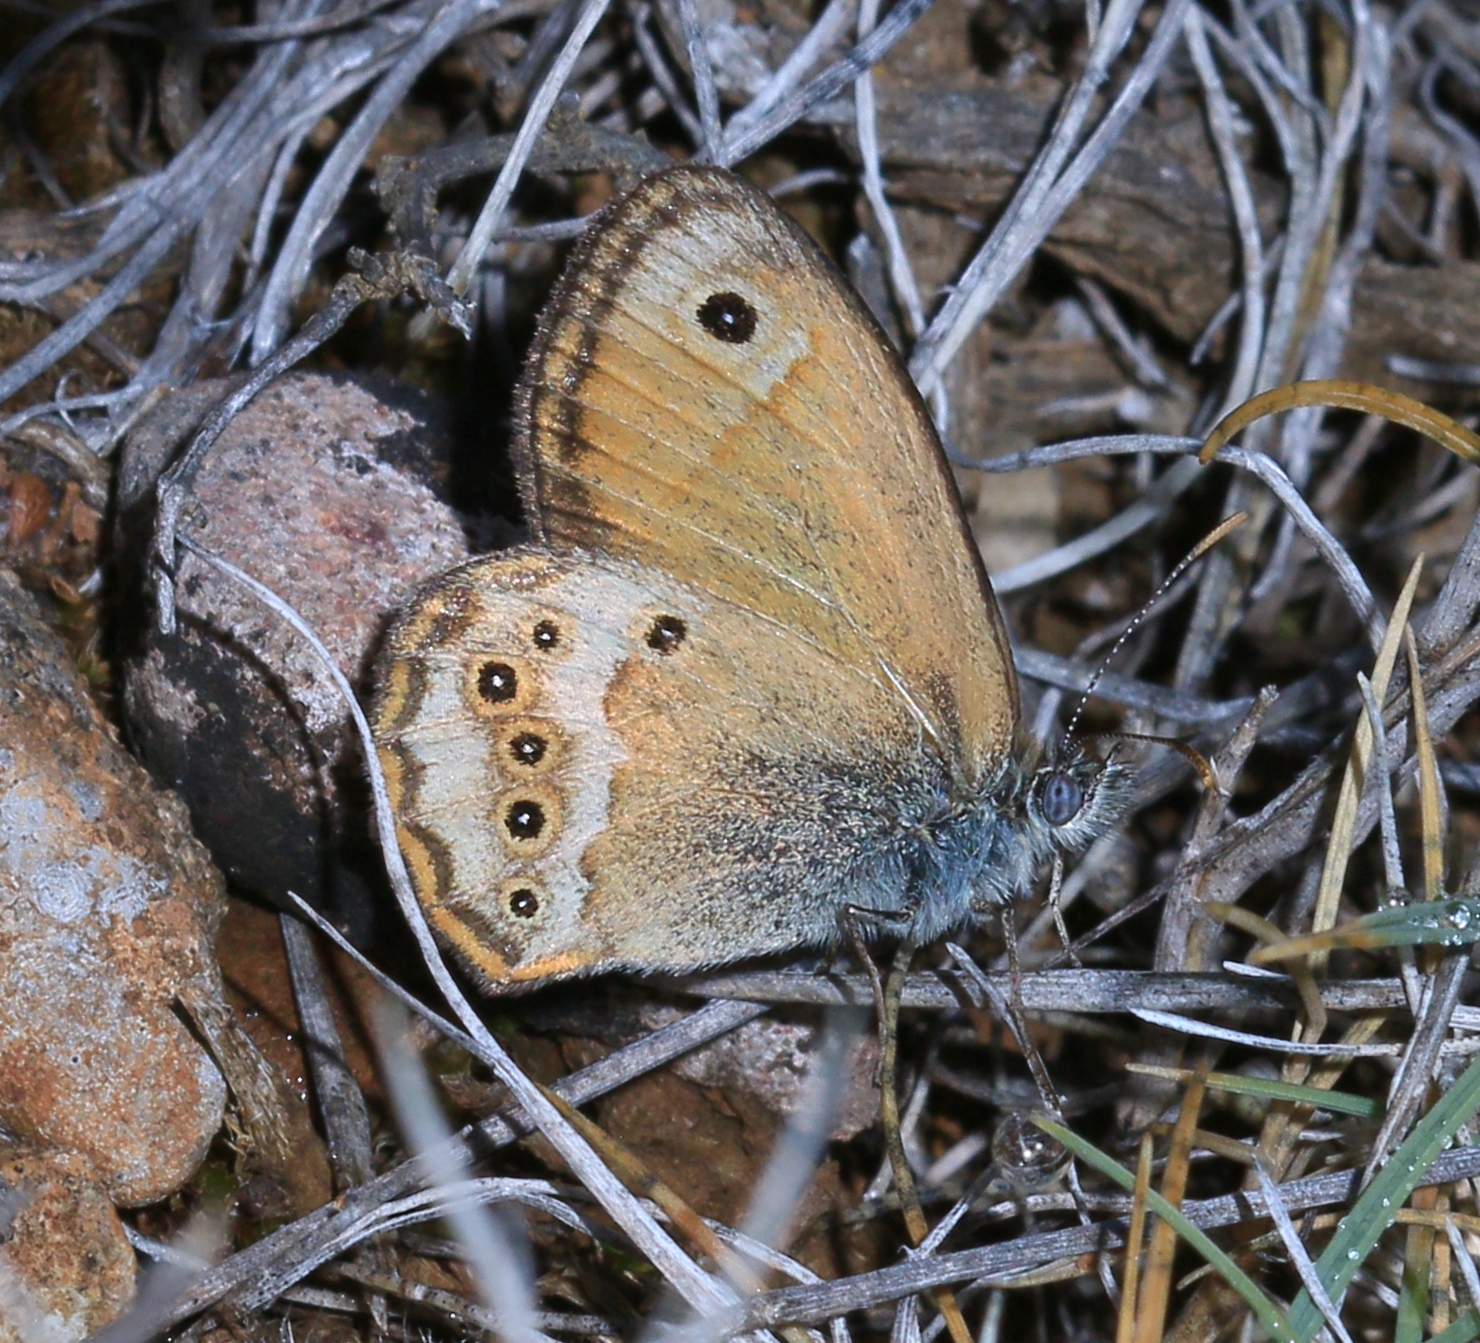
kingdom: Animalia
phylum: Arthropoda
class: Insecta
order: Lepidoptera
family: Nymphalidae
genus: Coenonympha
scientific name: Coenonympha dorus
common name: Dusky heath
